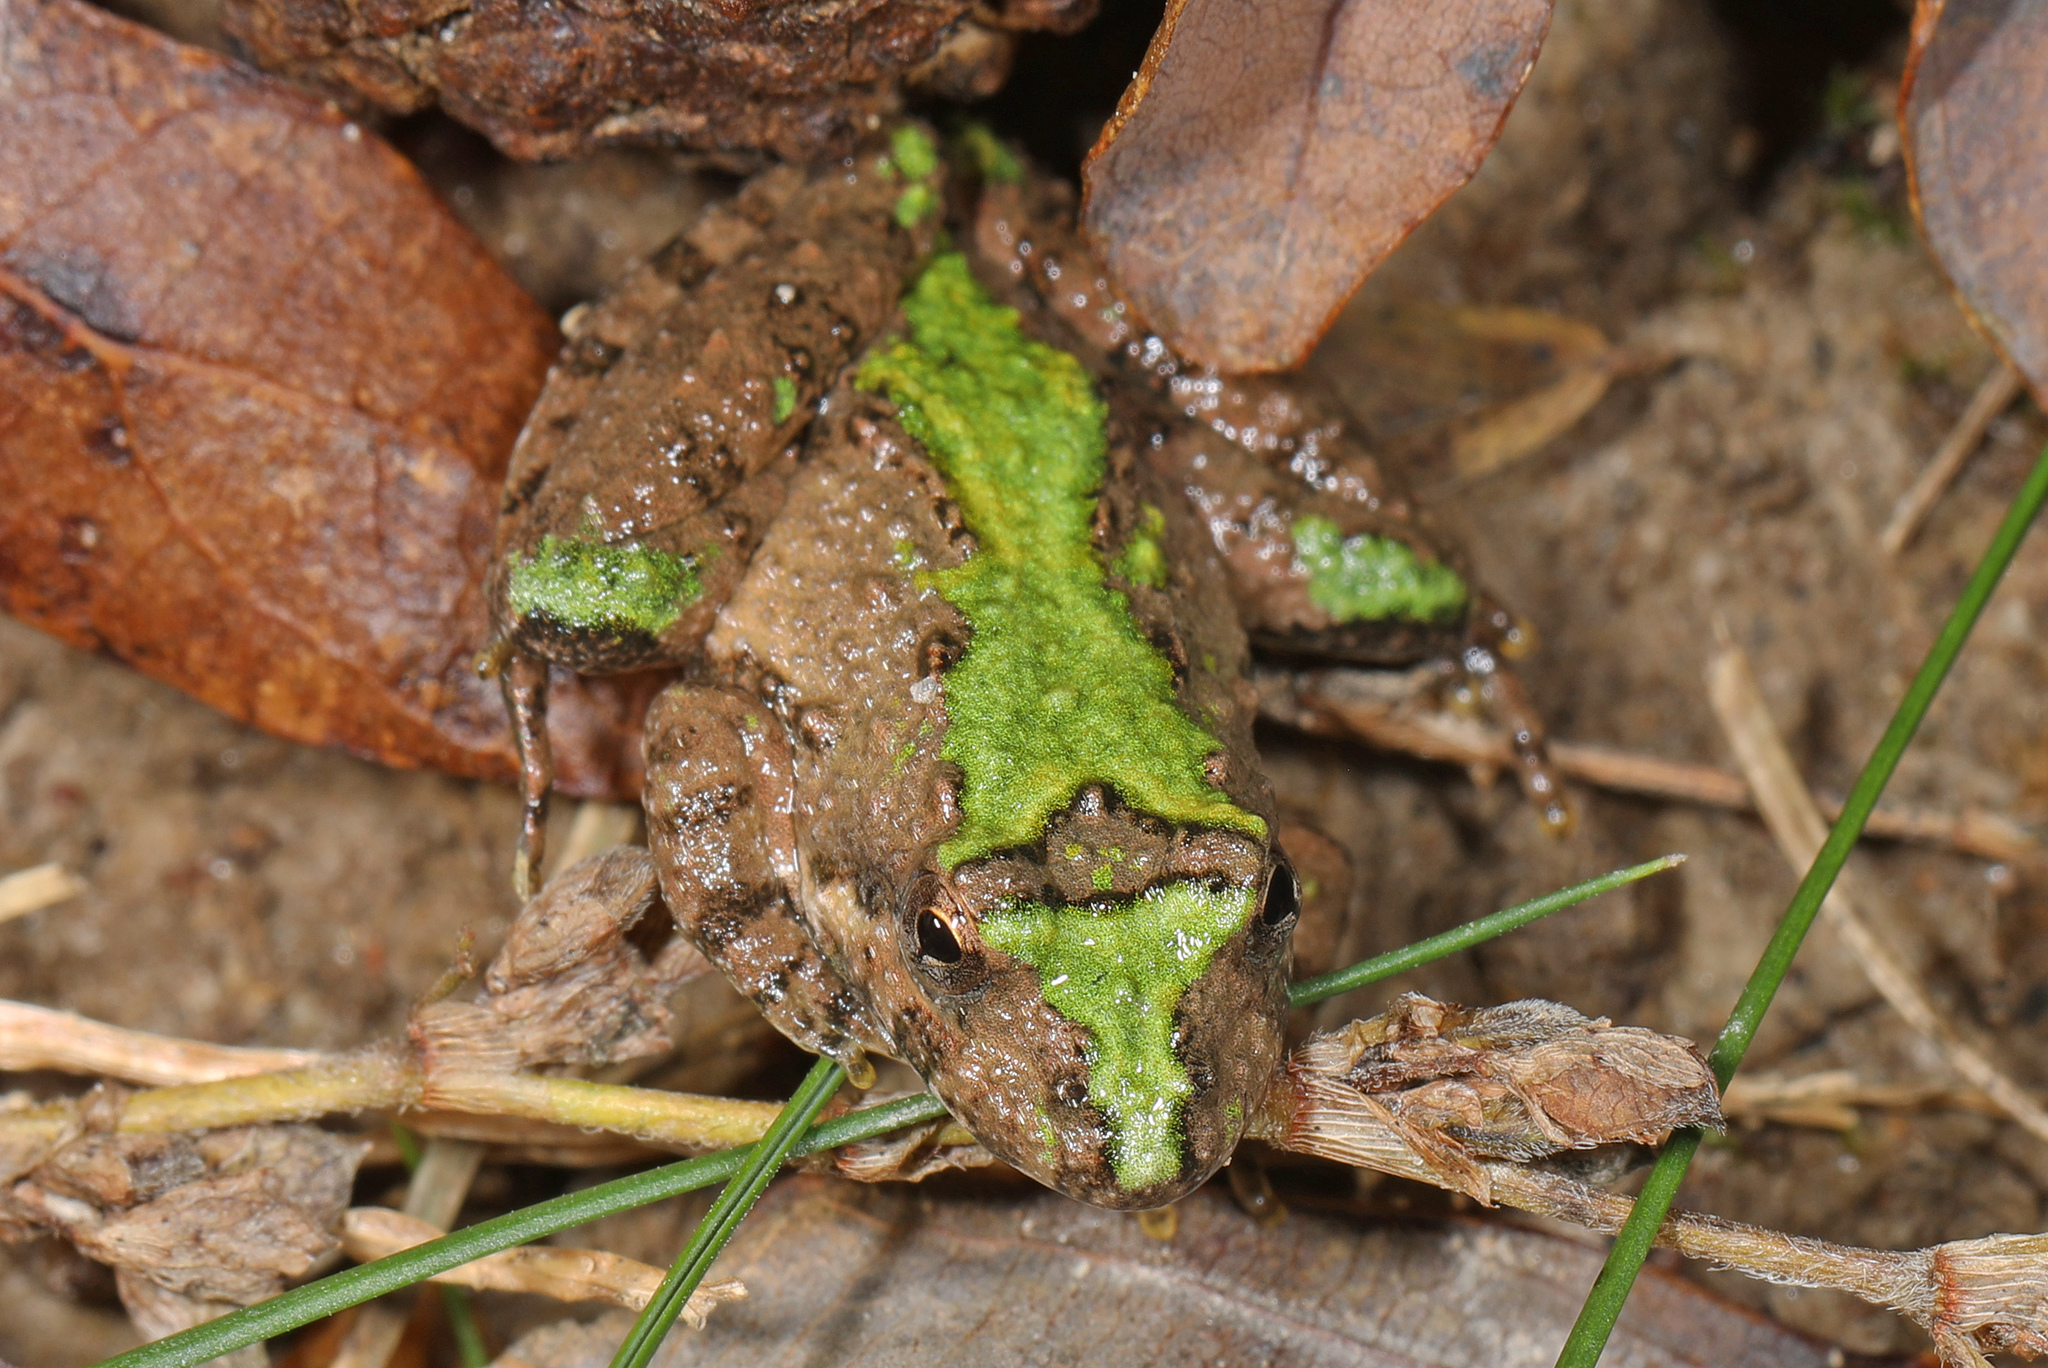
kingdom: Animalia
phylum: Chordata
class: Amphibia
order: Anura
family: Hylidae
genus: Acris
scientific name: Acris crepitans
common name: Northern cricket frog
